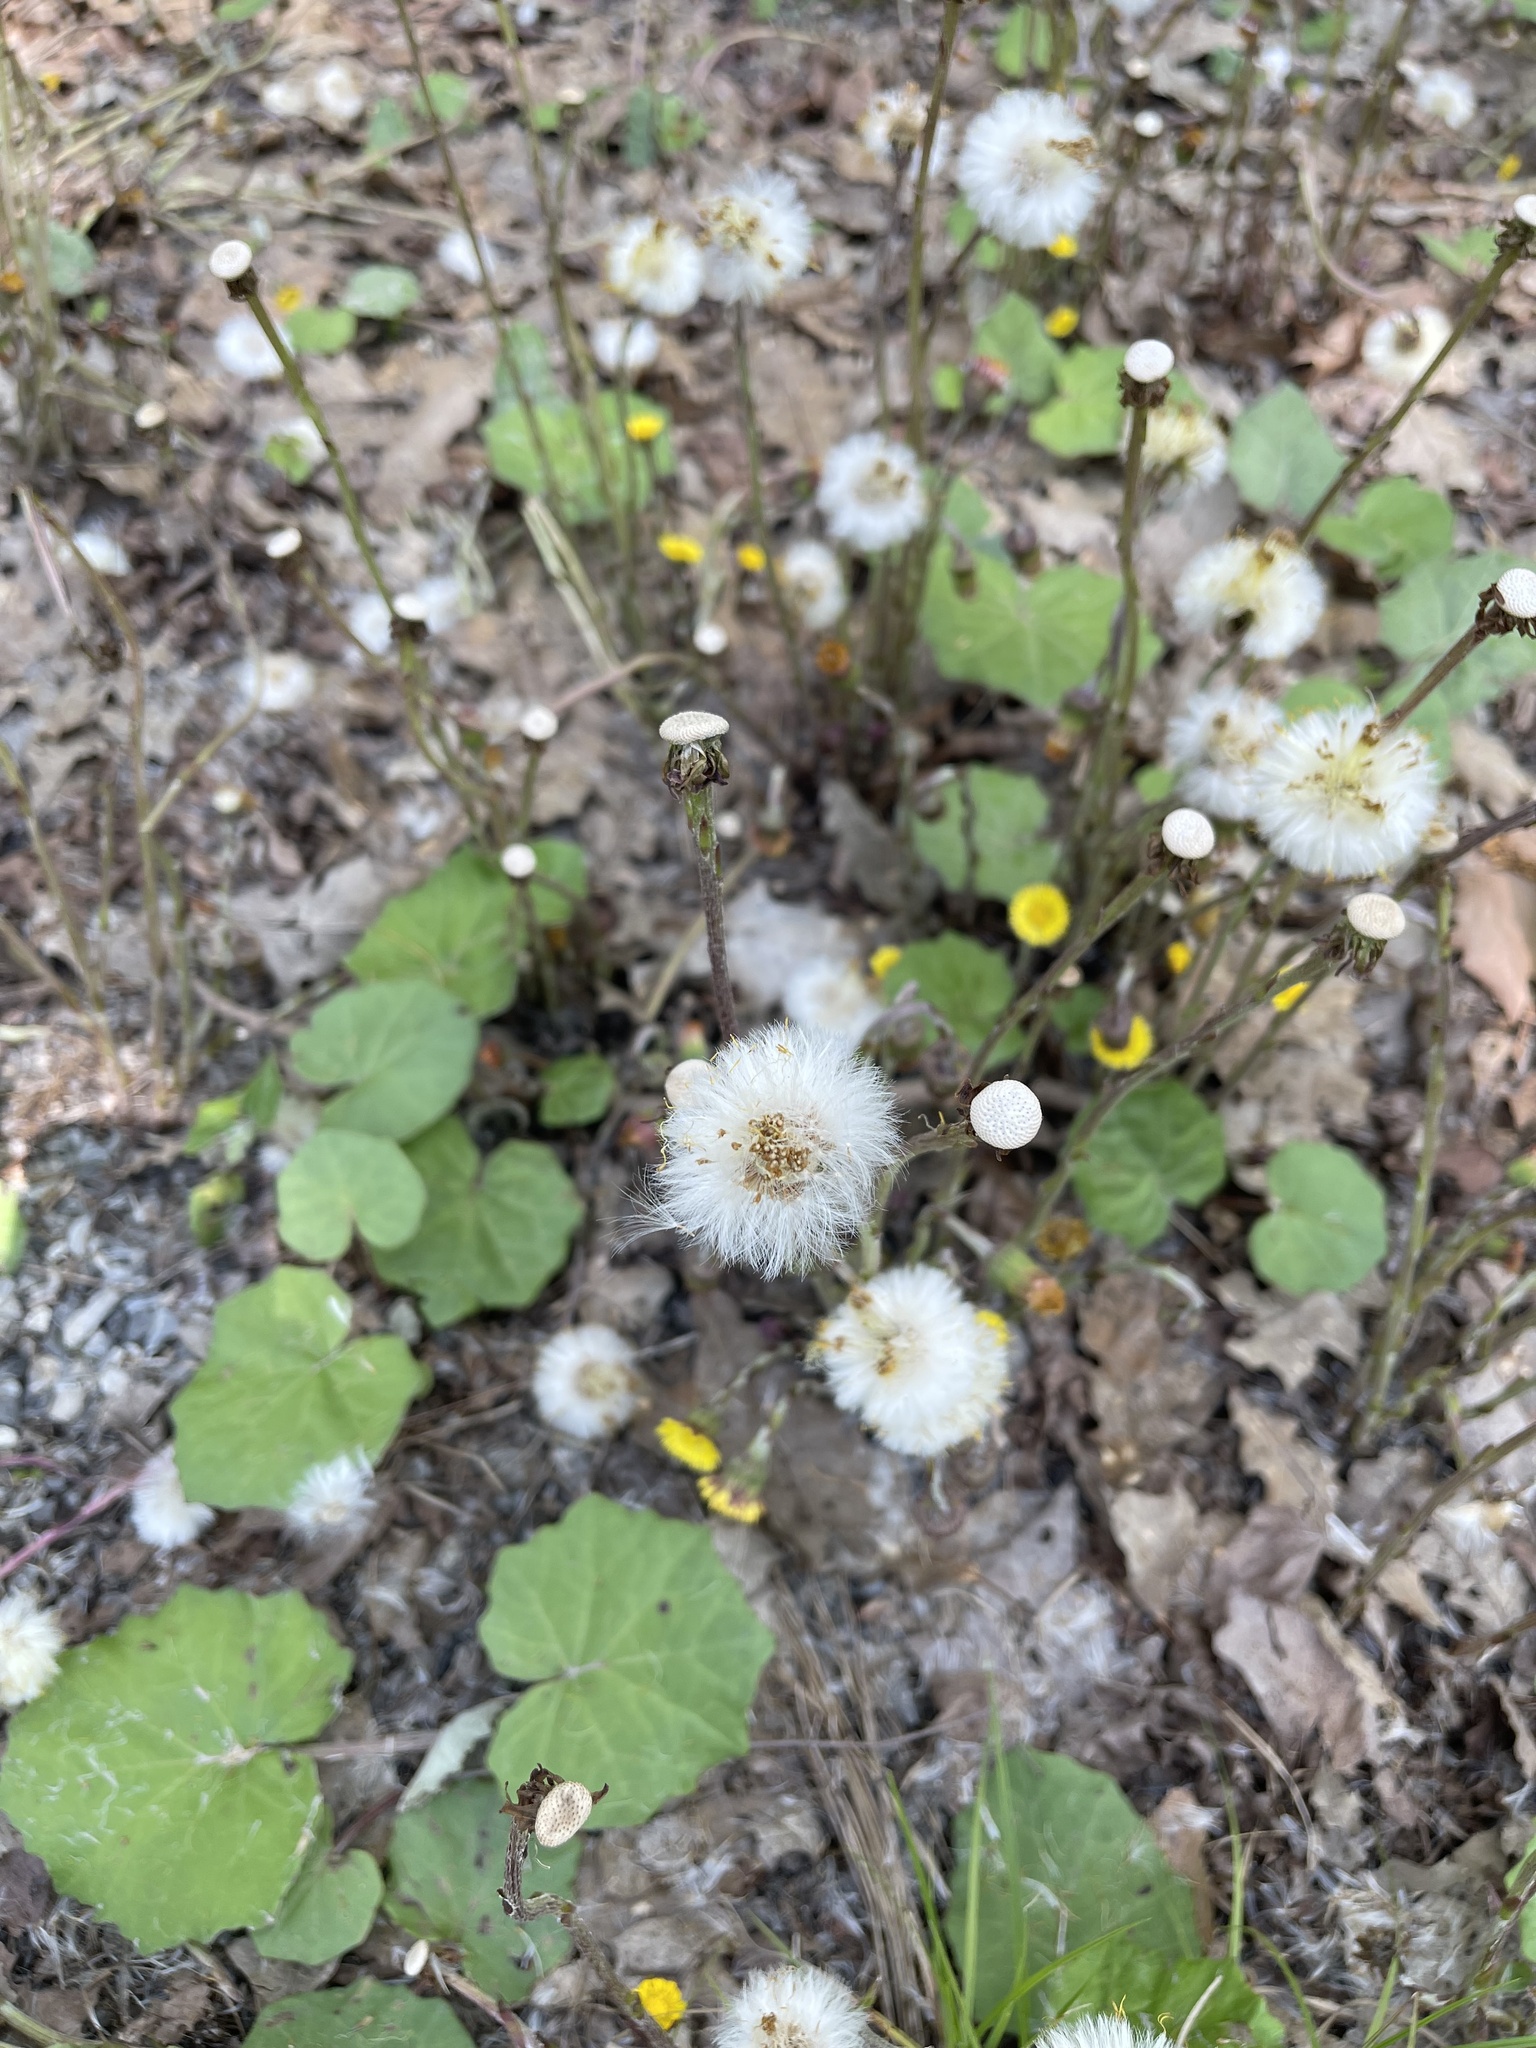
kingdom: Plantae
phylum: Tracheophyta
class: Magnoliopsida
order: Asterales
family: Asteraceae
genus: Tussilago
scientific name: Tussilago farfara
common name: Coltsfoot
